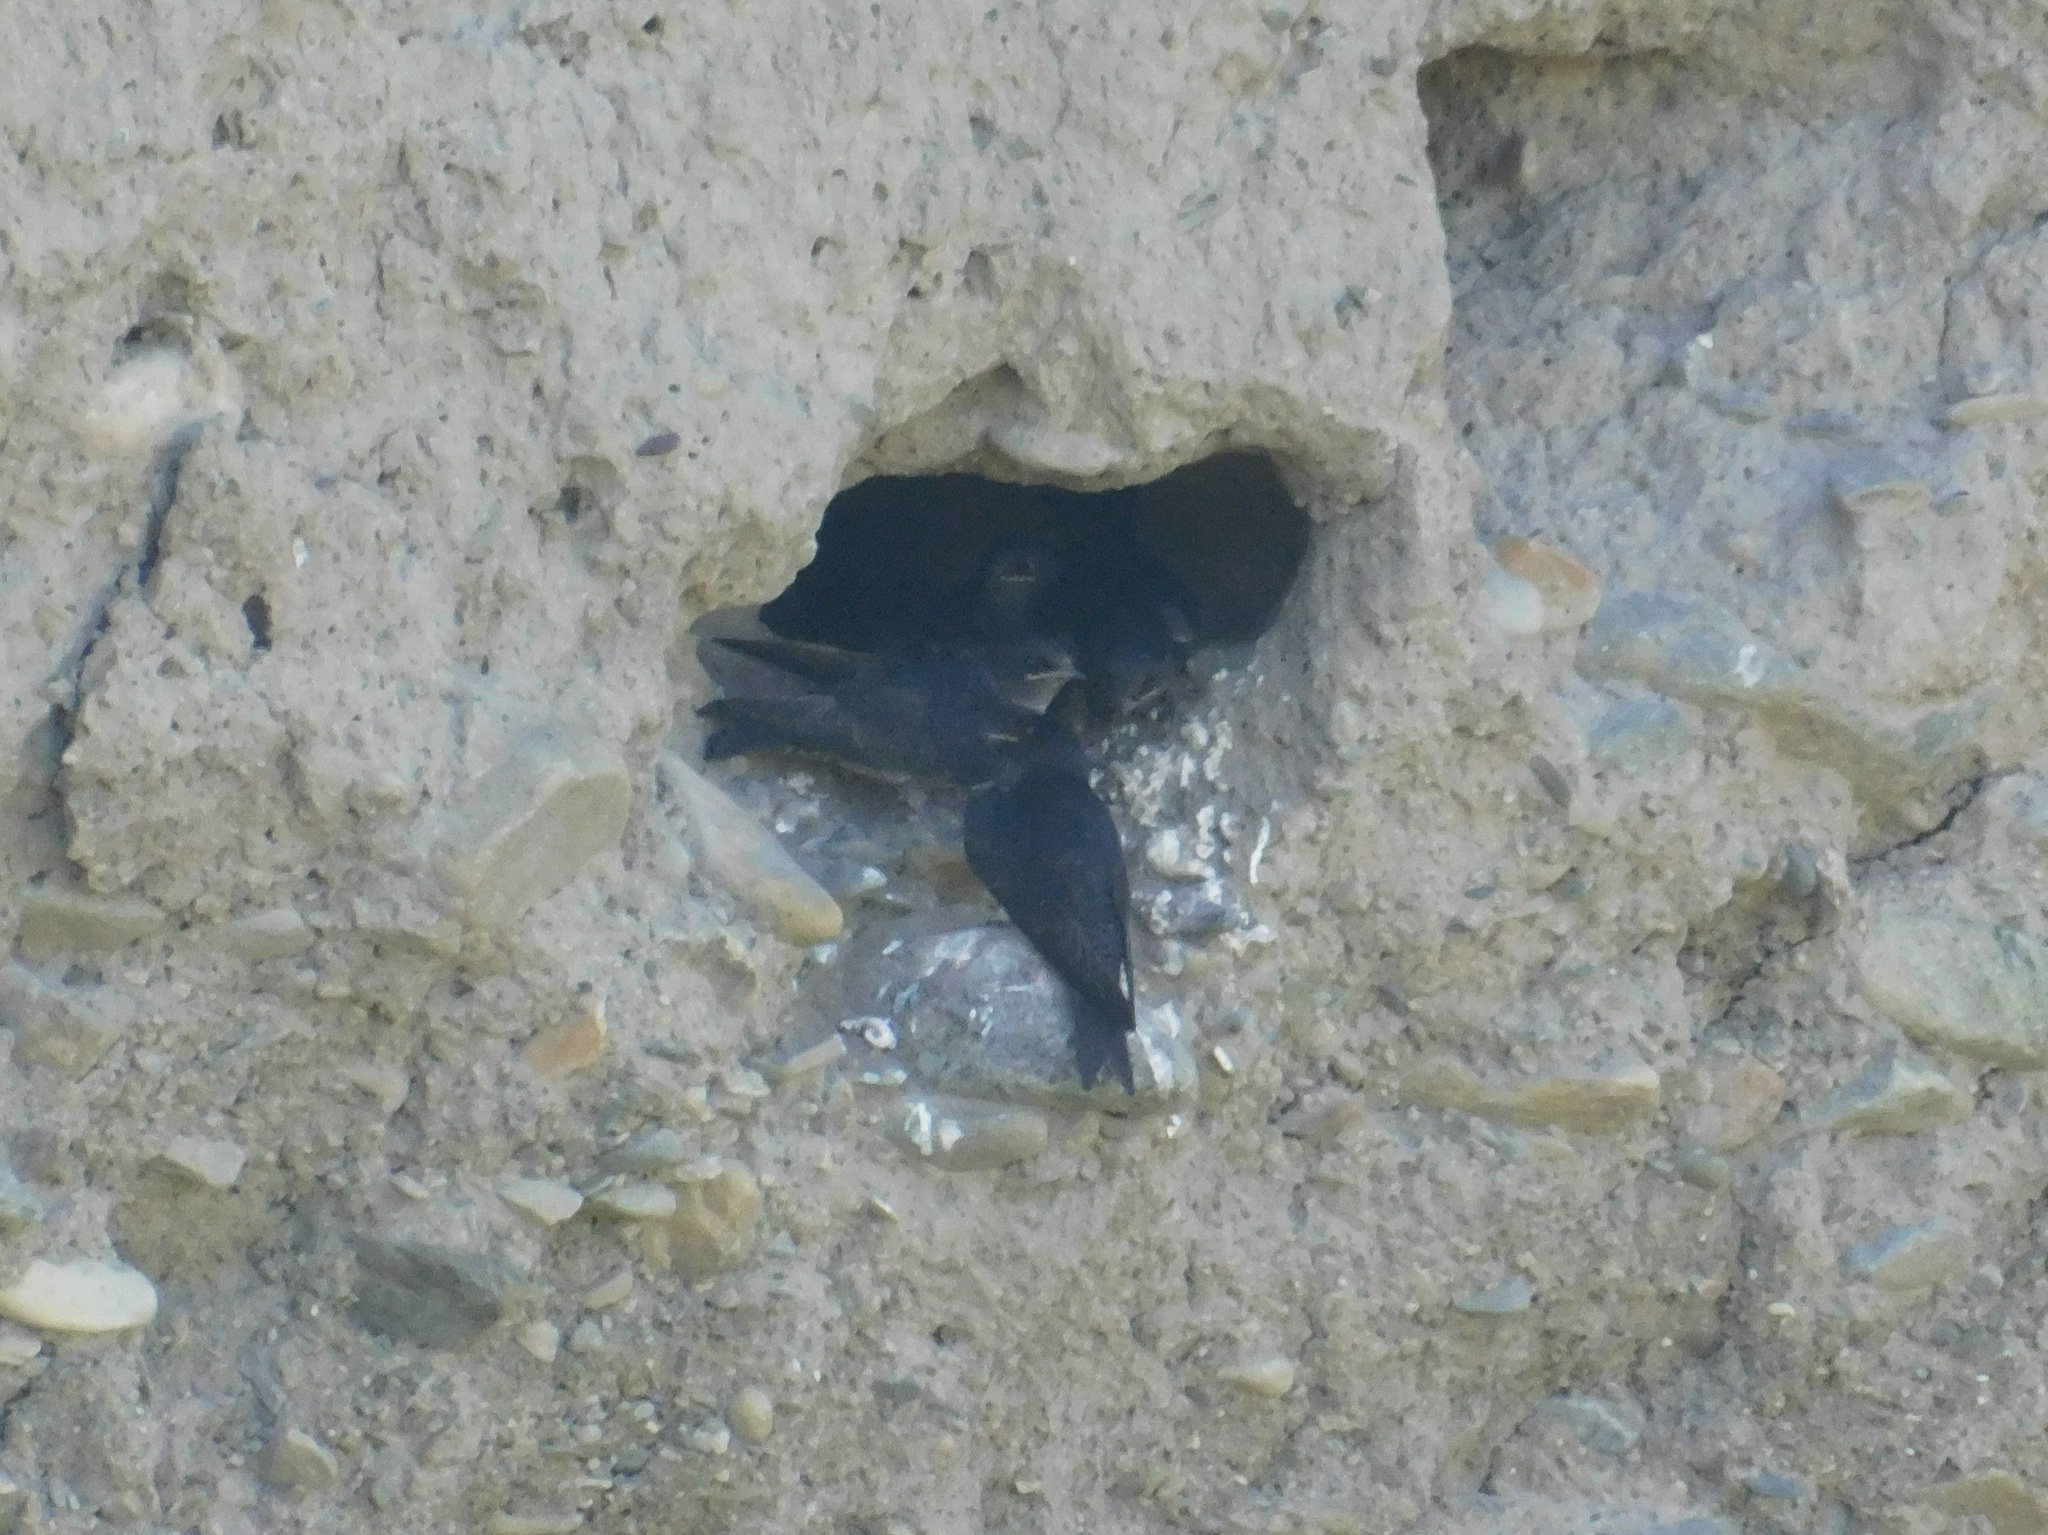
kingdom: Animalia
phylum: Chordata
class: Aves
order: Passeriformes
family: Hirundinidae
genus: Progne
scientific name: Progne elegans
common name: Southern martin
